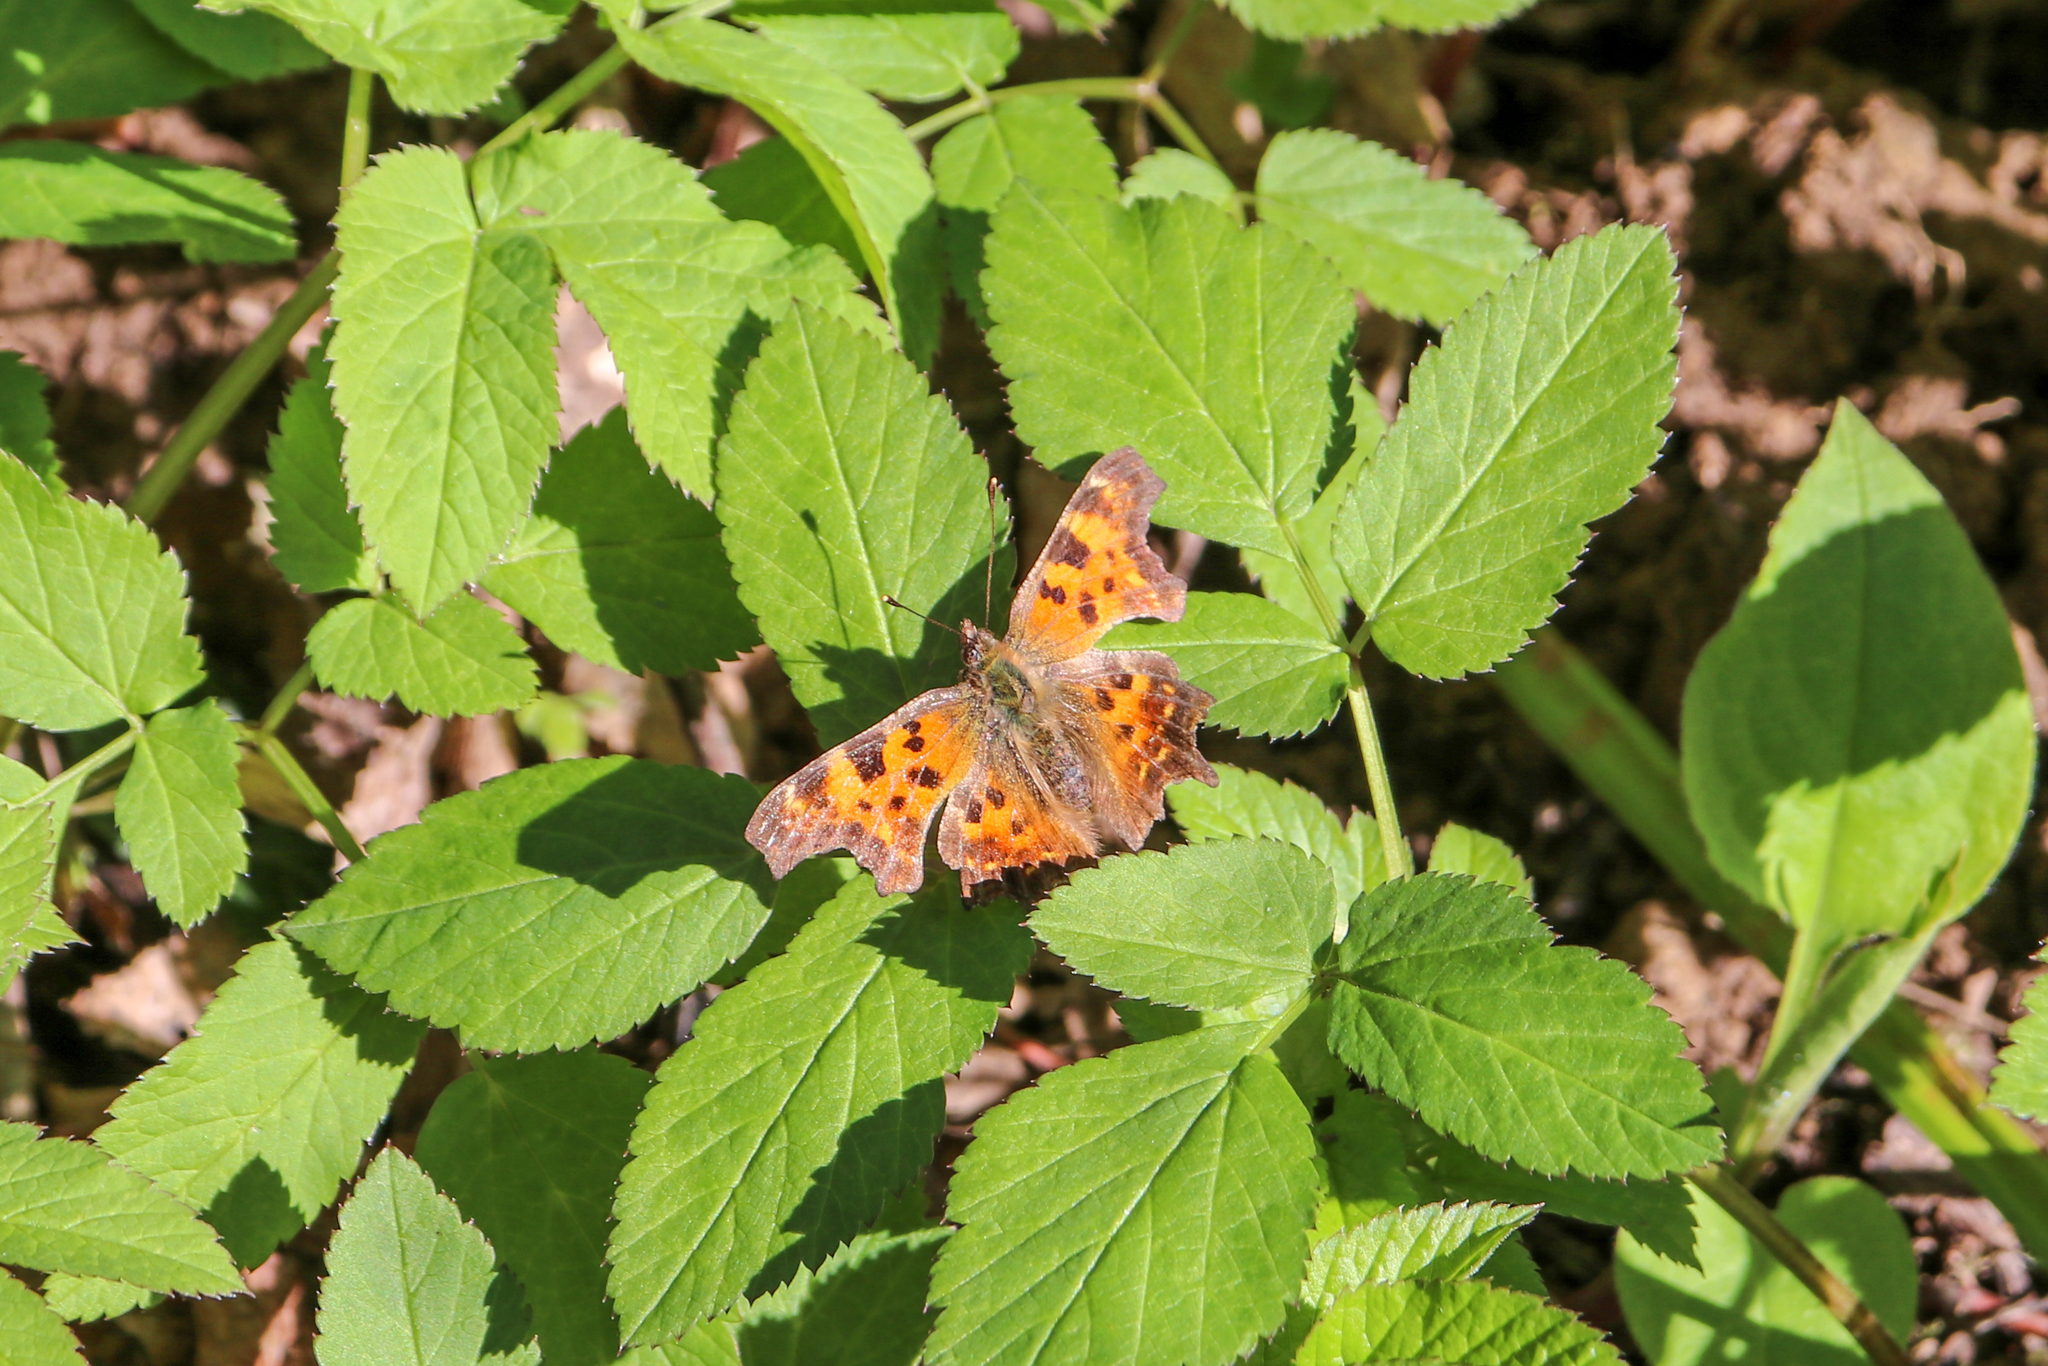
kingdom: Animalia
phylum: Arthropoda
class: Insecta
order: Lepidoptera
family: Nymphalidae
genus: Polygonia
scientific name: Polygonia c-album
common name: Comma
